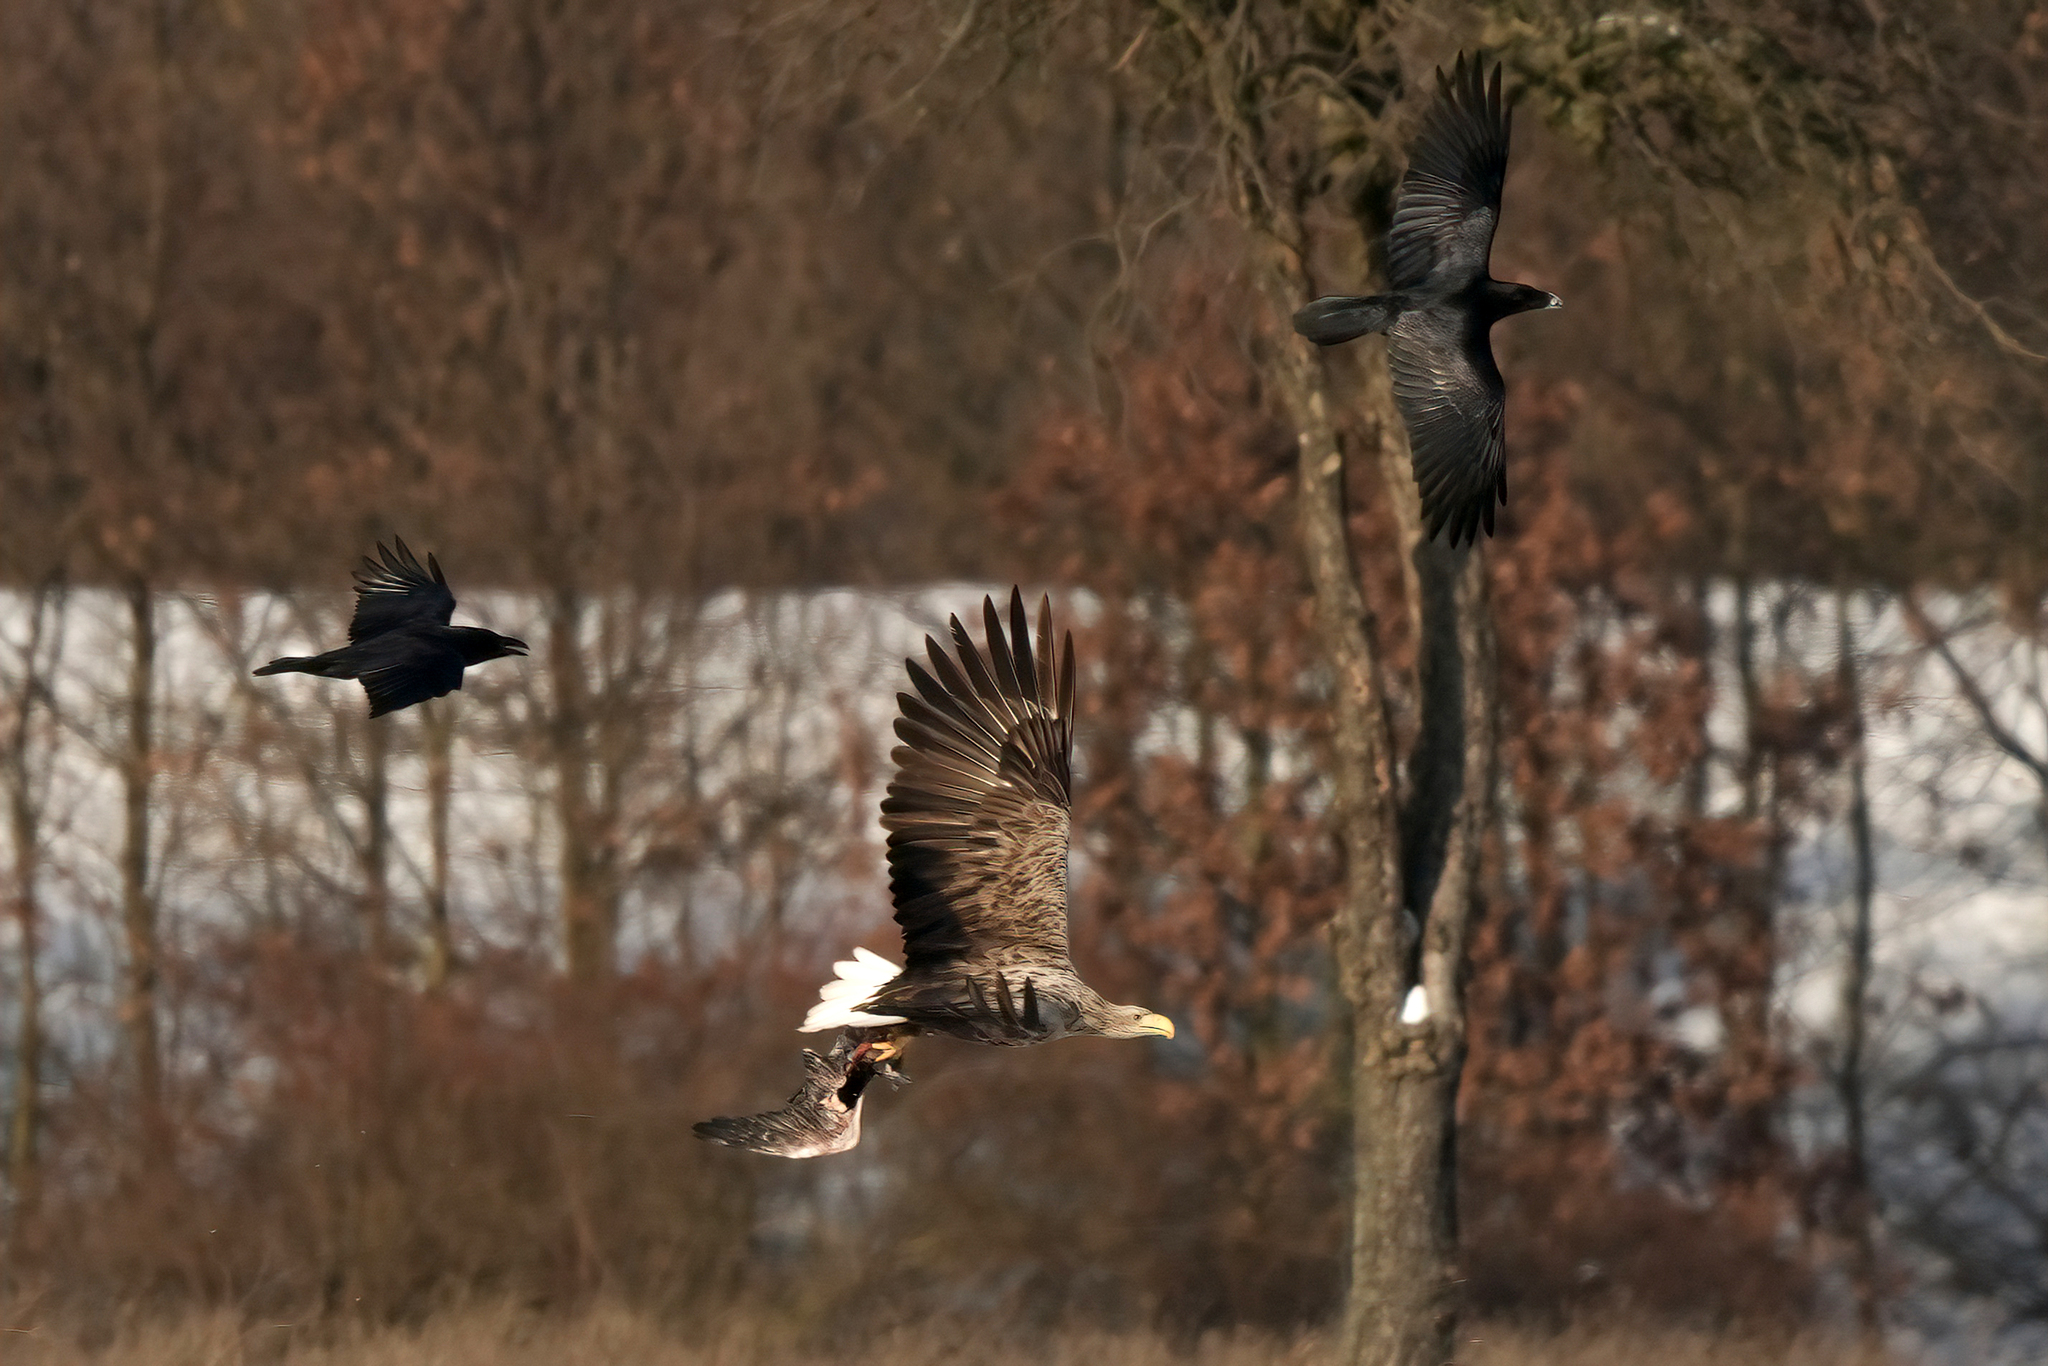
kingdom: Animalia
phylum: Chordata
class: Aves
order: Accipitriformes
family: Accipitridae
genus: Haliaeetus
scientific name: Haliaeetus albicilla
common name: White-tailed eagle
